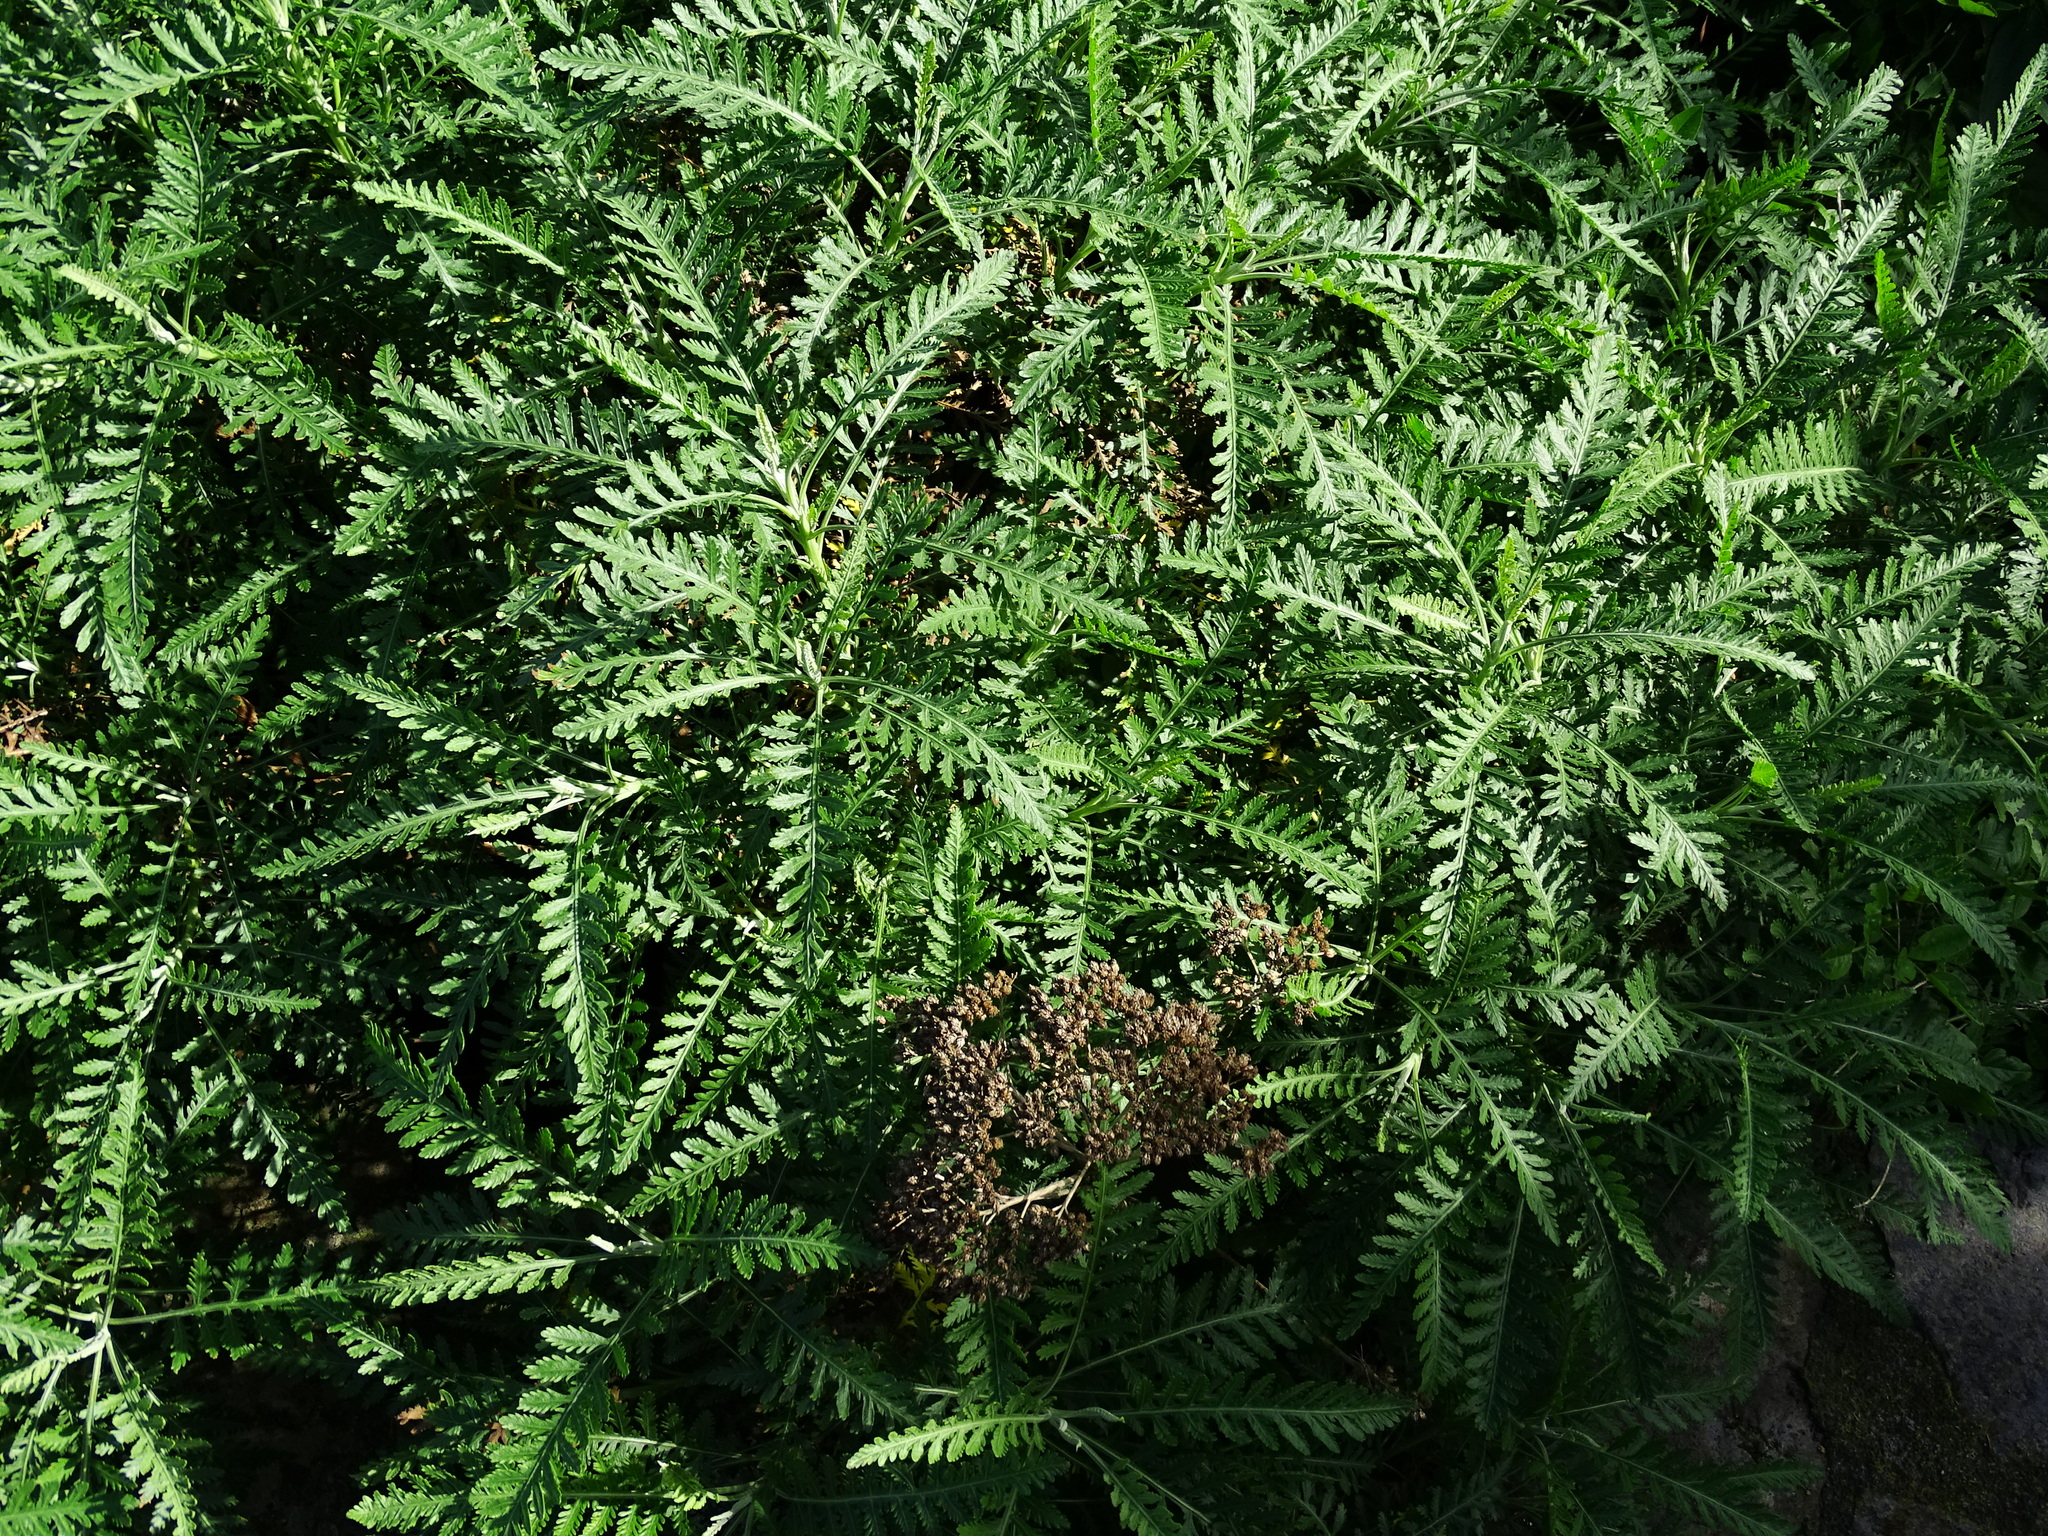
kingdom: Plantae
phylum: Tracheophyta
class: Magnoliopsida
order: Asterales
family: Asteraceae
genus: Gonospermum
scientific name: Gonospermum canariense
